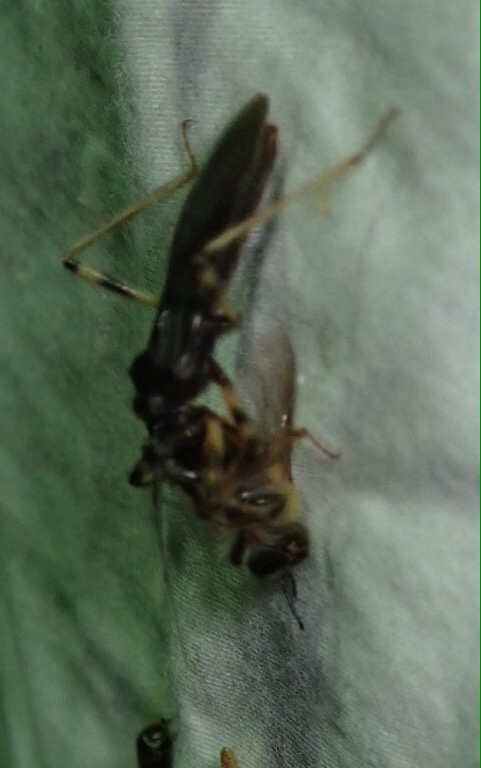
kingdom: Animalia
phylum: Arthropoda
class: Insecta
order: Hemiptera
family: Reduviidae
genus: Reduvius
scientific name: Reduvius tarsatus
